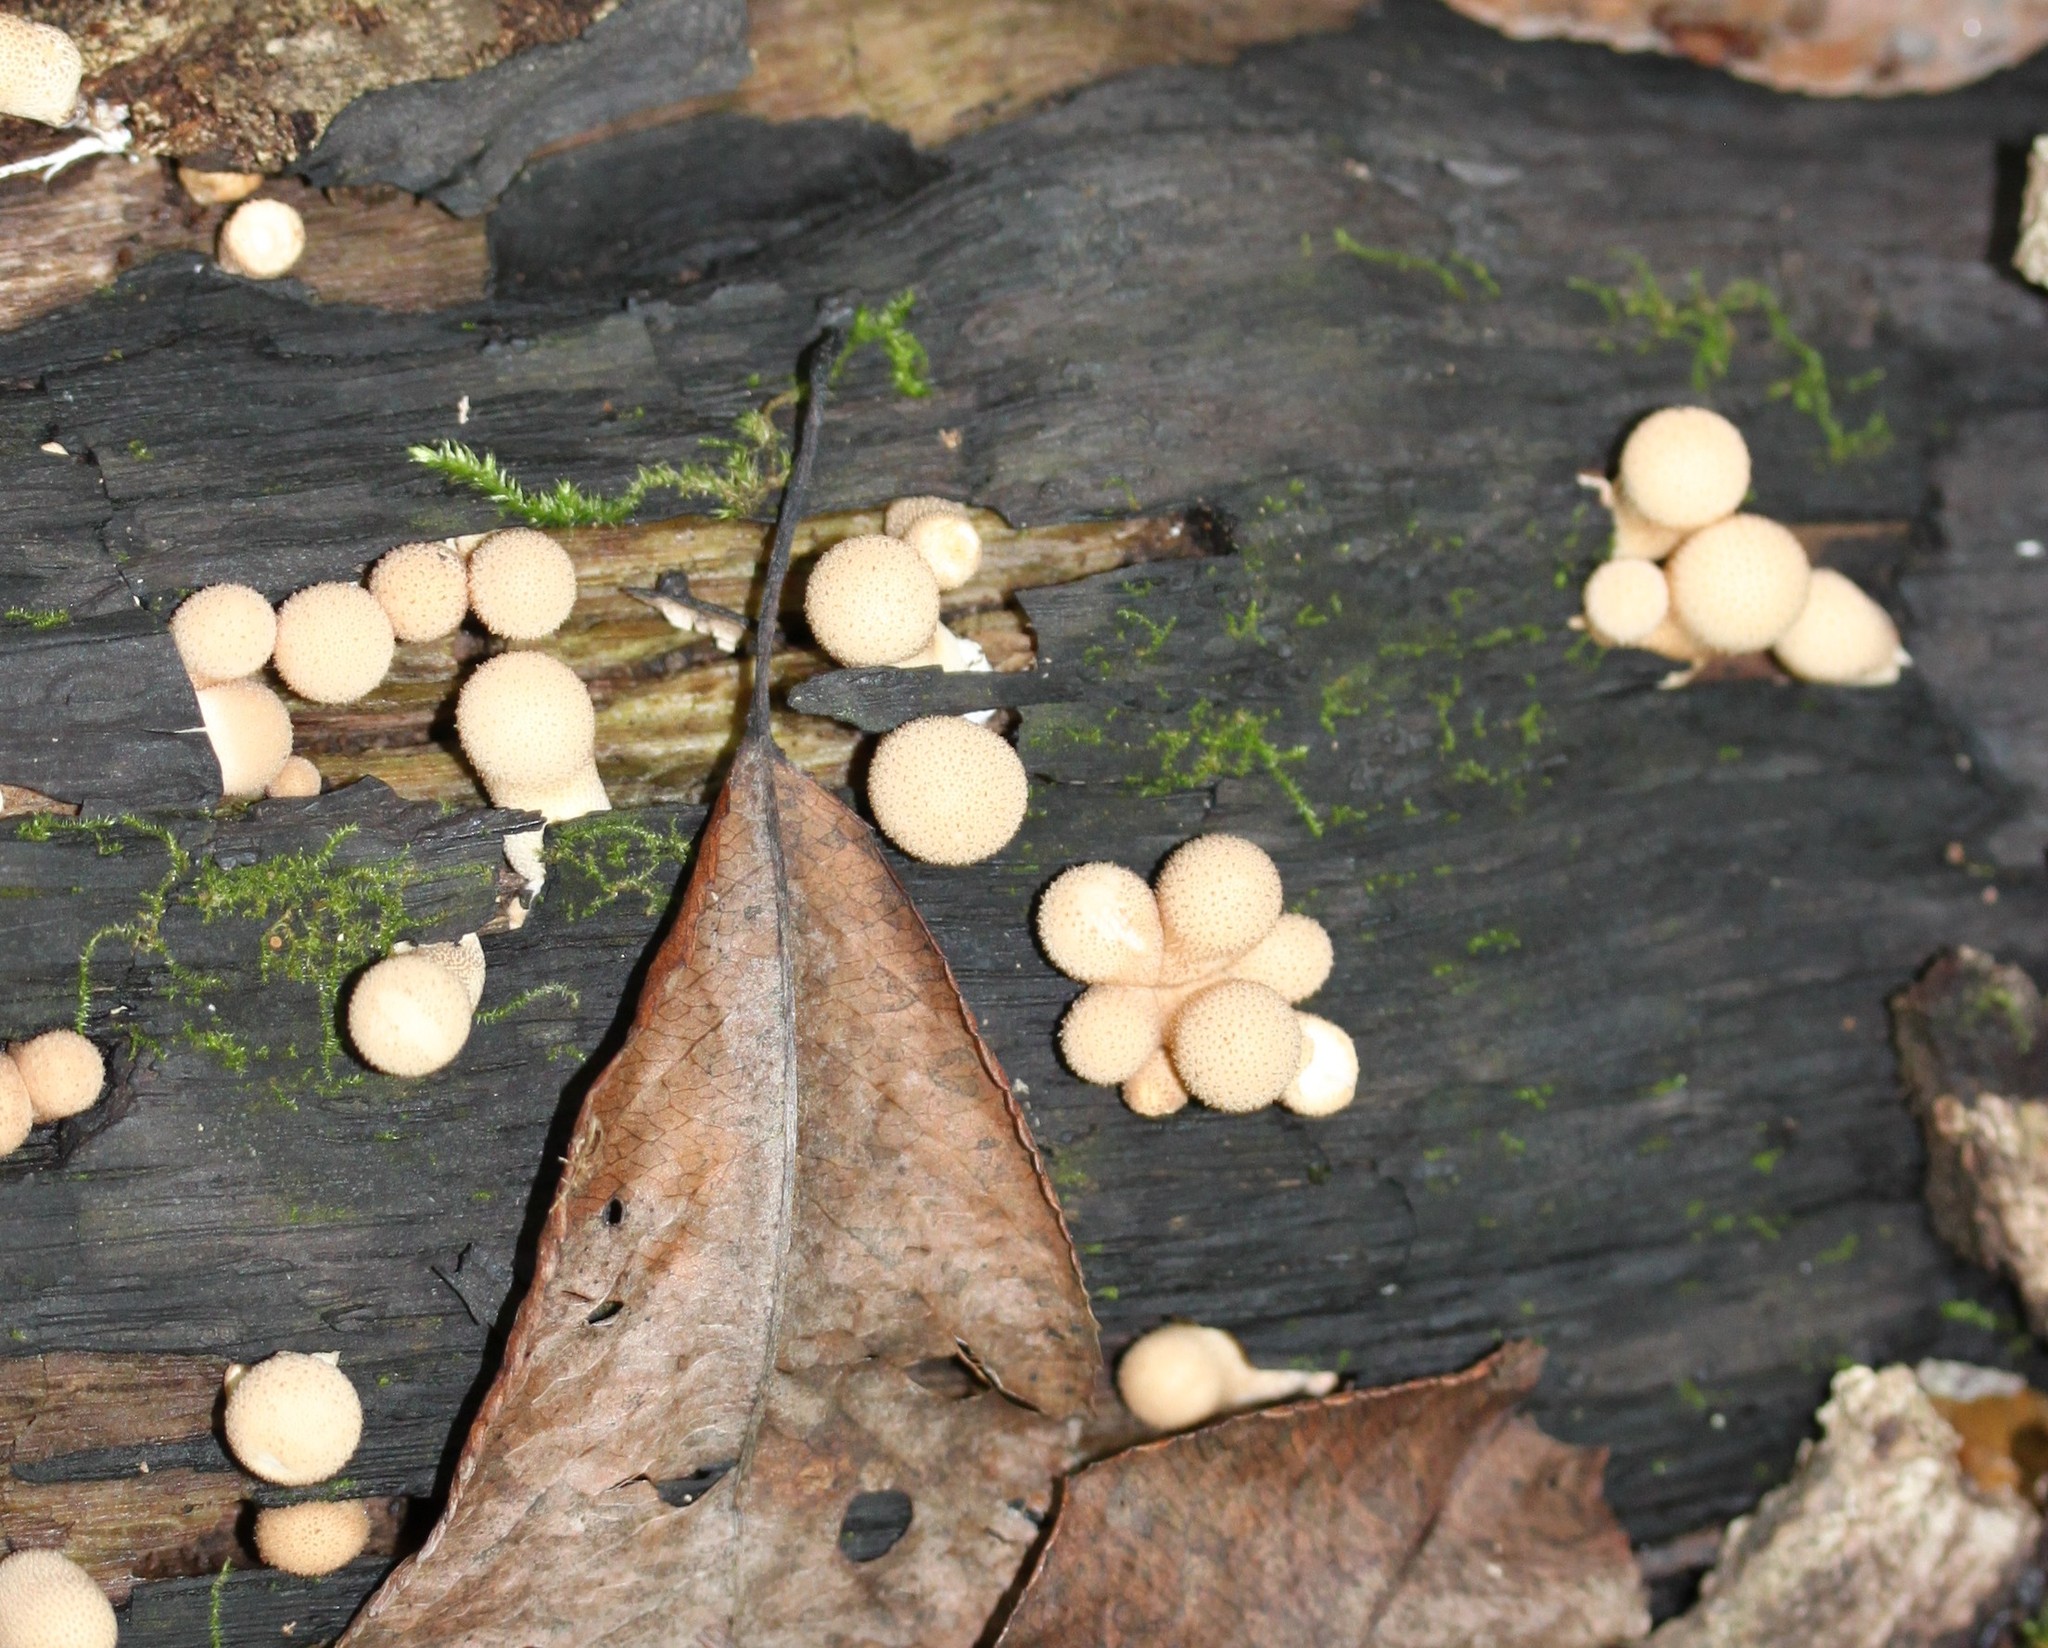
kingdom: Fungi
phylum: Basidiomycota
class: Agaricomycetes
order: Agaricales
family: Lycoperdaceae
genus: Apioperdon
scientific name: Apioperdon pyriforme
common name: Pear-shaped puffball
